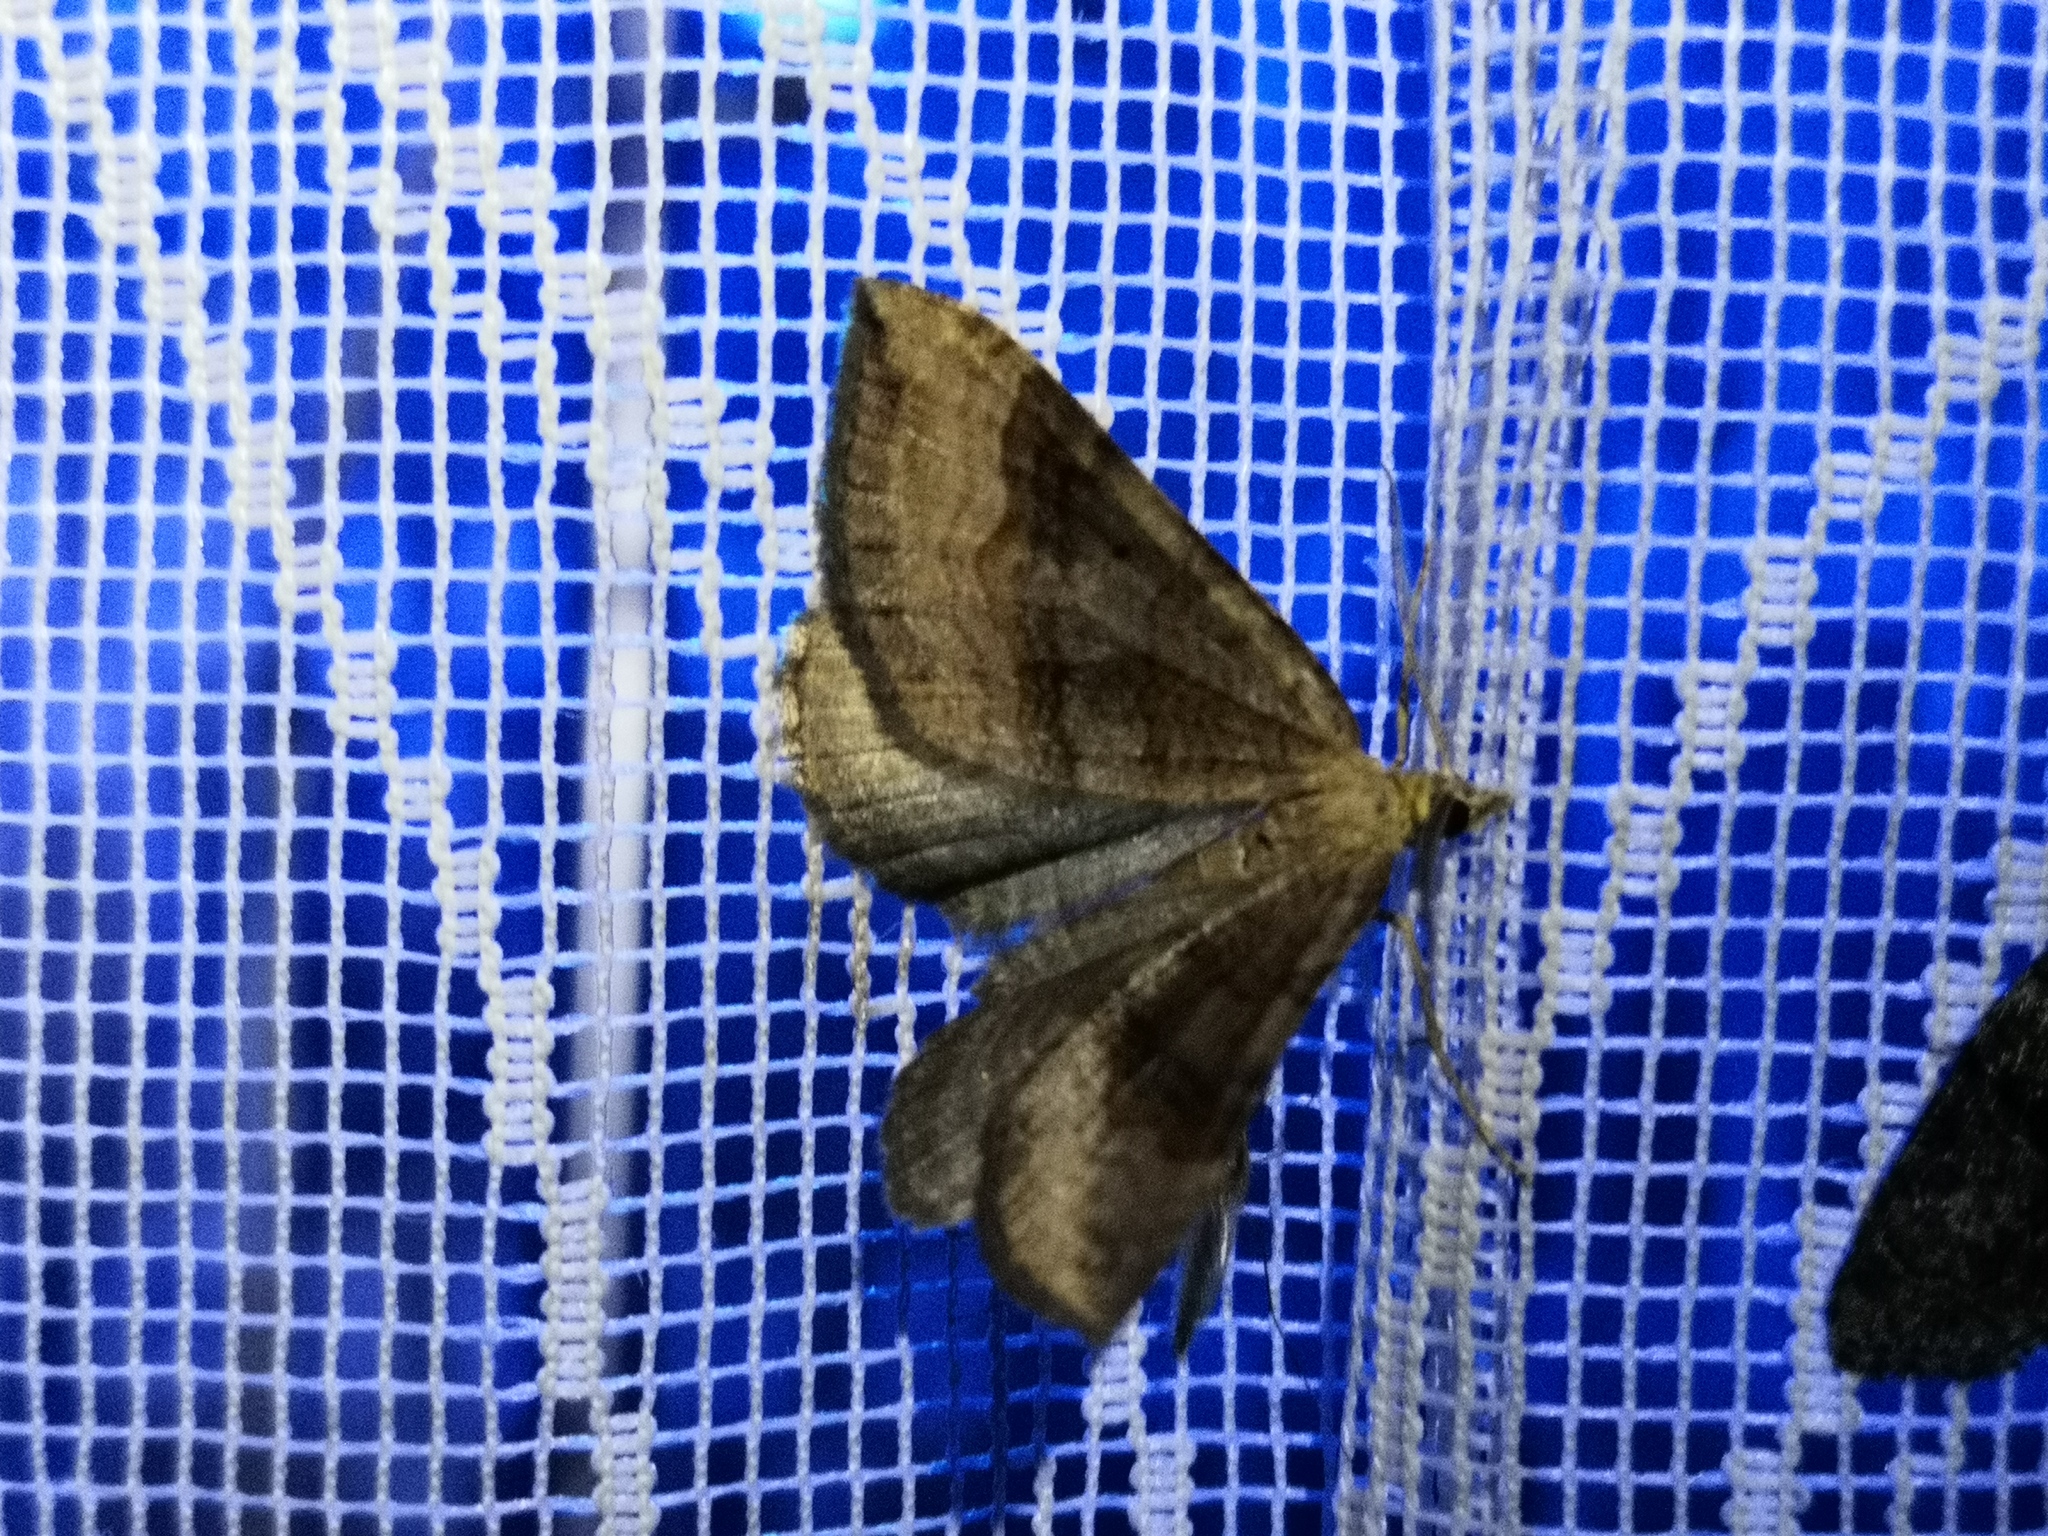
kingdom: Animalia
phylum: Arthropoda
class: Insecta
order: Lepidoptera
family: Geometridae
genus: Scotopteryx
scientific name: Scotopteryx chenopodiata
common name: Shaded broad-bar
